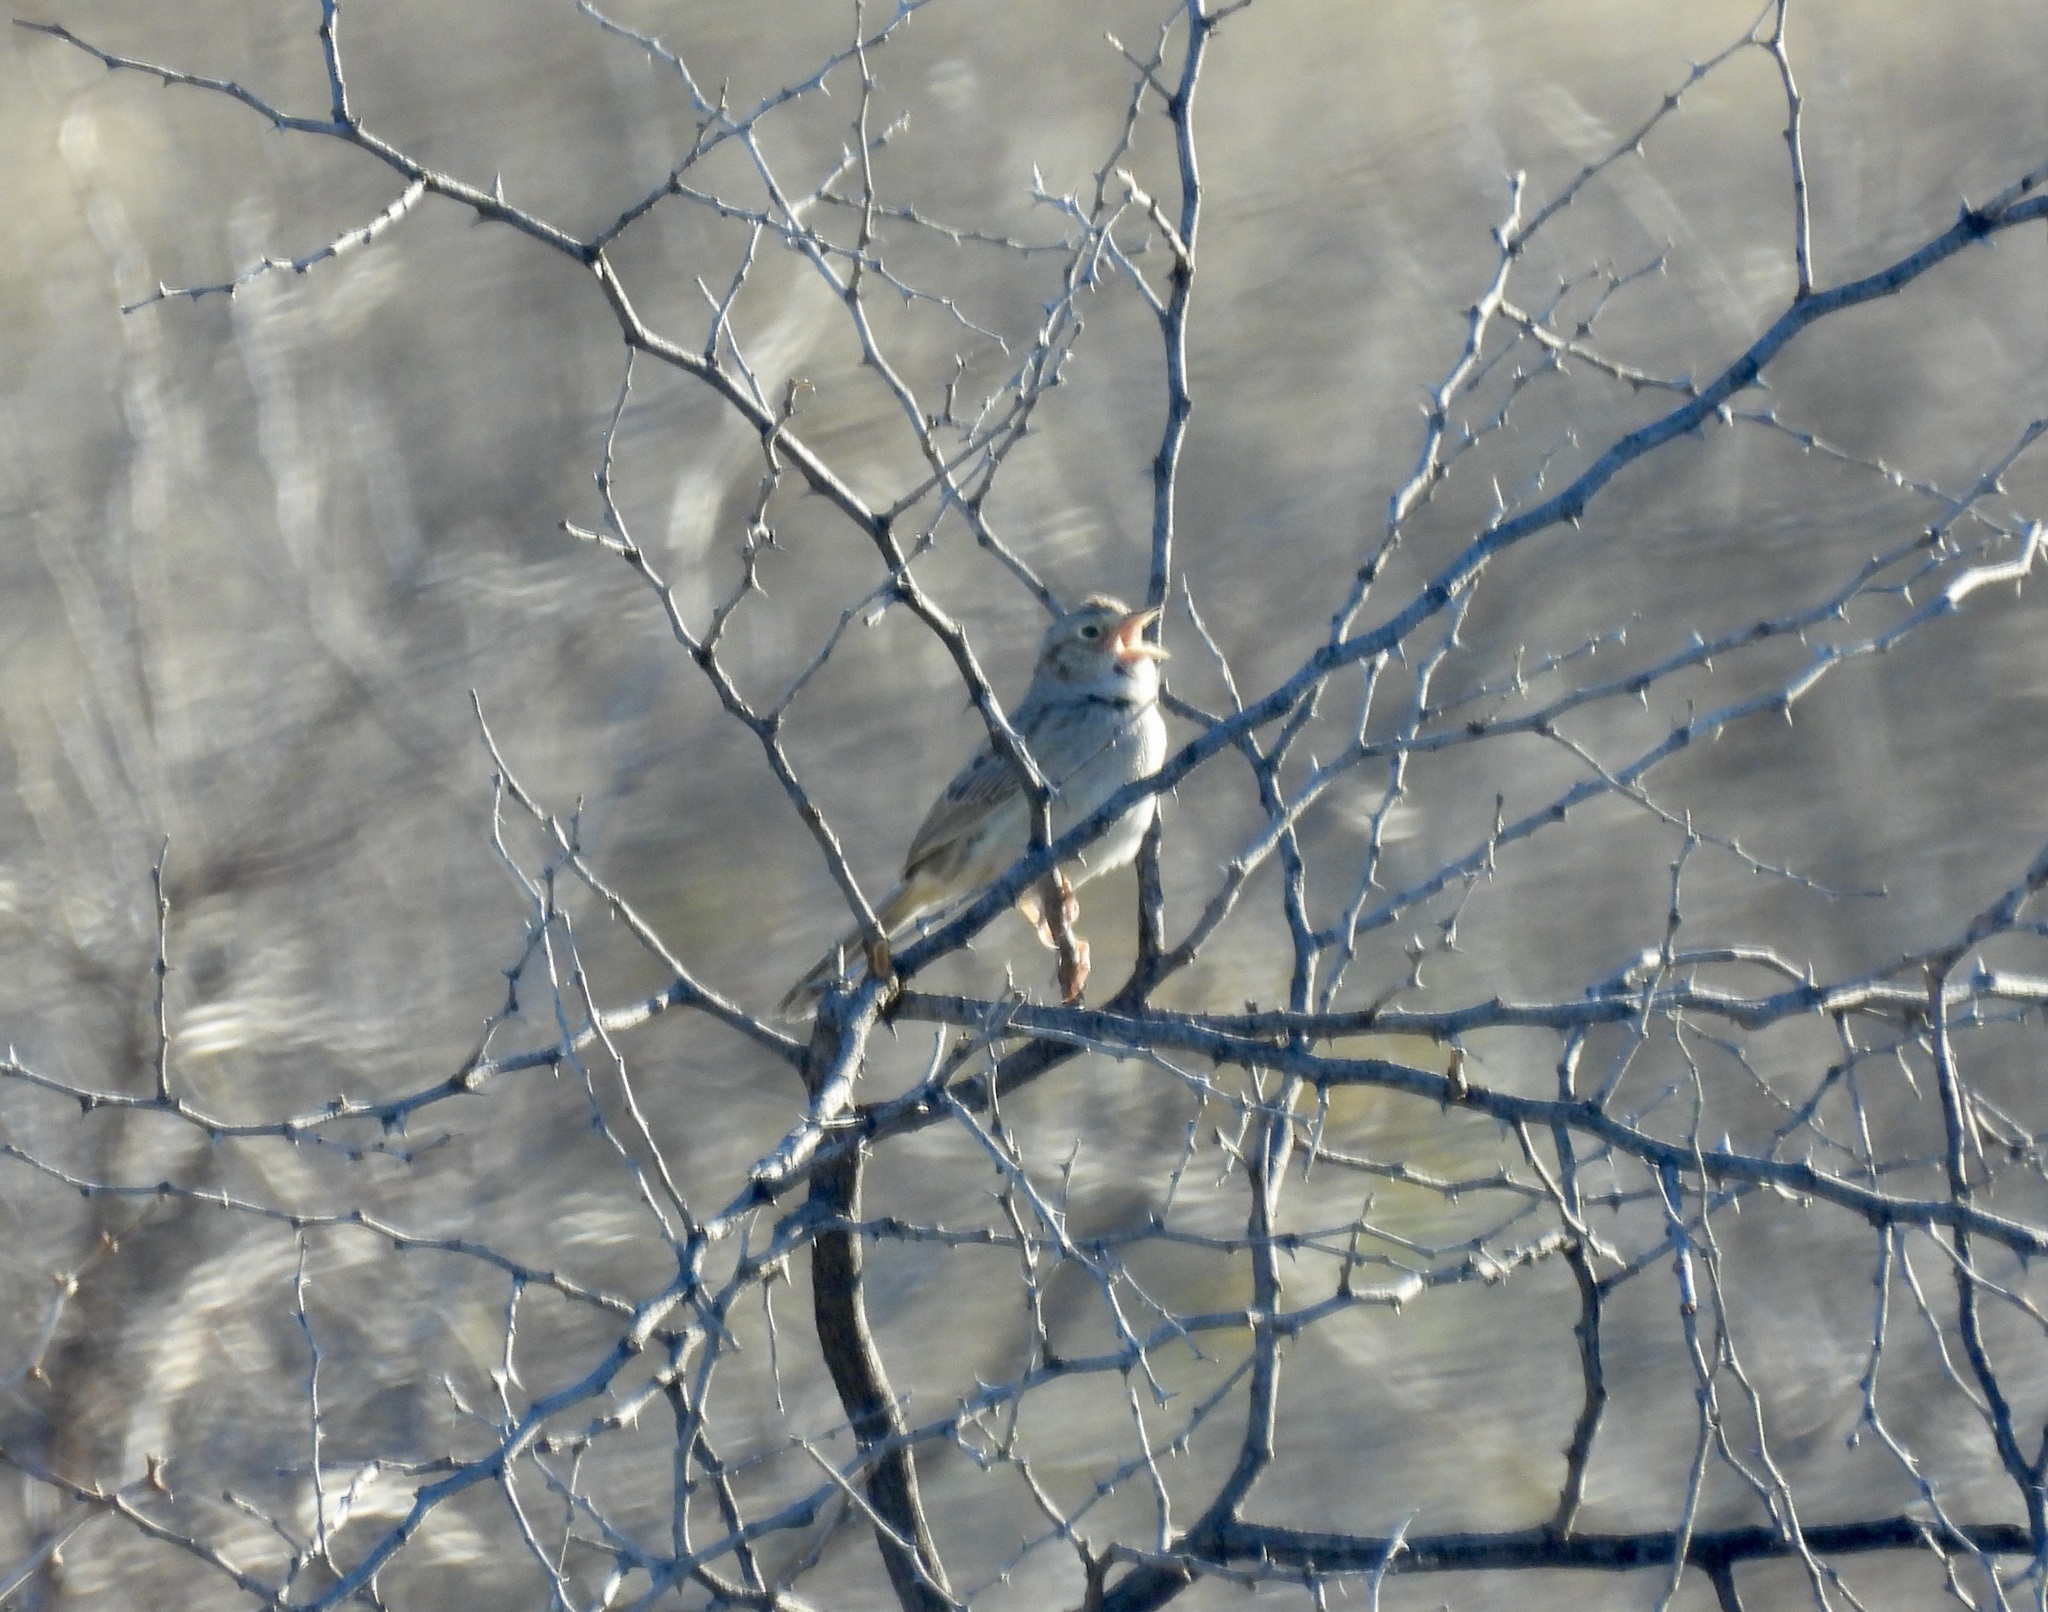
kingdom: Animalia
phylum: Chordata
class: Aves
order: Passeriformes
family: Passerellidae
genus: Peucaea
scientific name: Peucaea cassinii
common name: Cassin's sparrow
